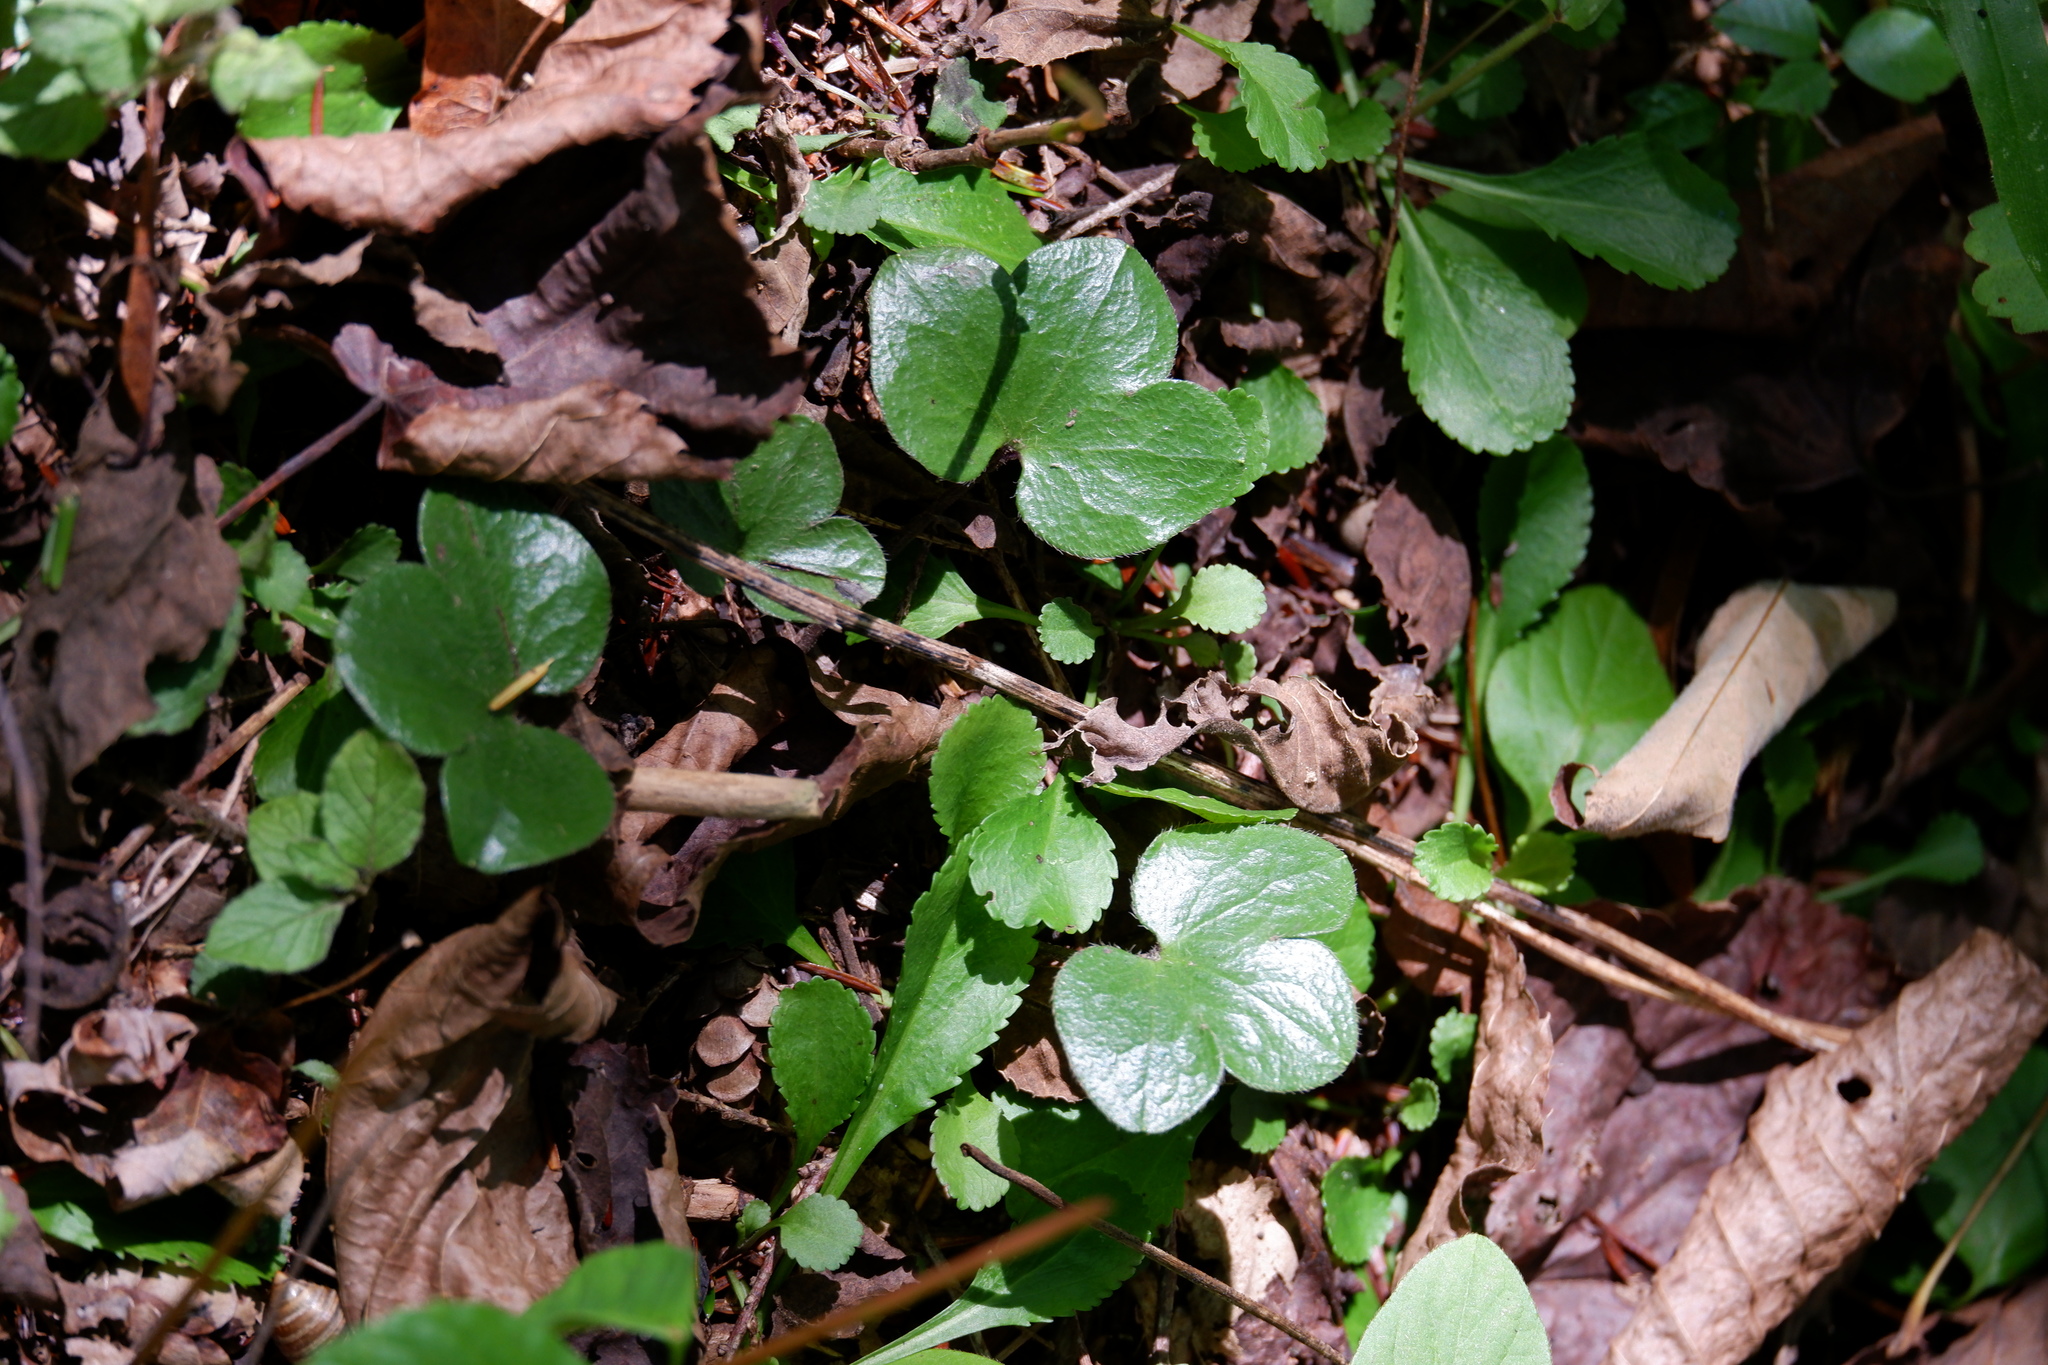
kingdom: Plantae
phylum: Tracheophyta
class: Magnoliopsida
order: Ranunculales
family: Ranunculaceae
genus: Hepatica
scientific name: Hepatica americana
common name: American hepatica
